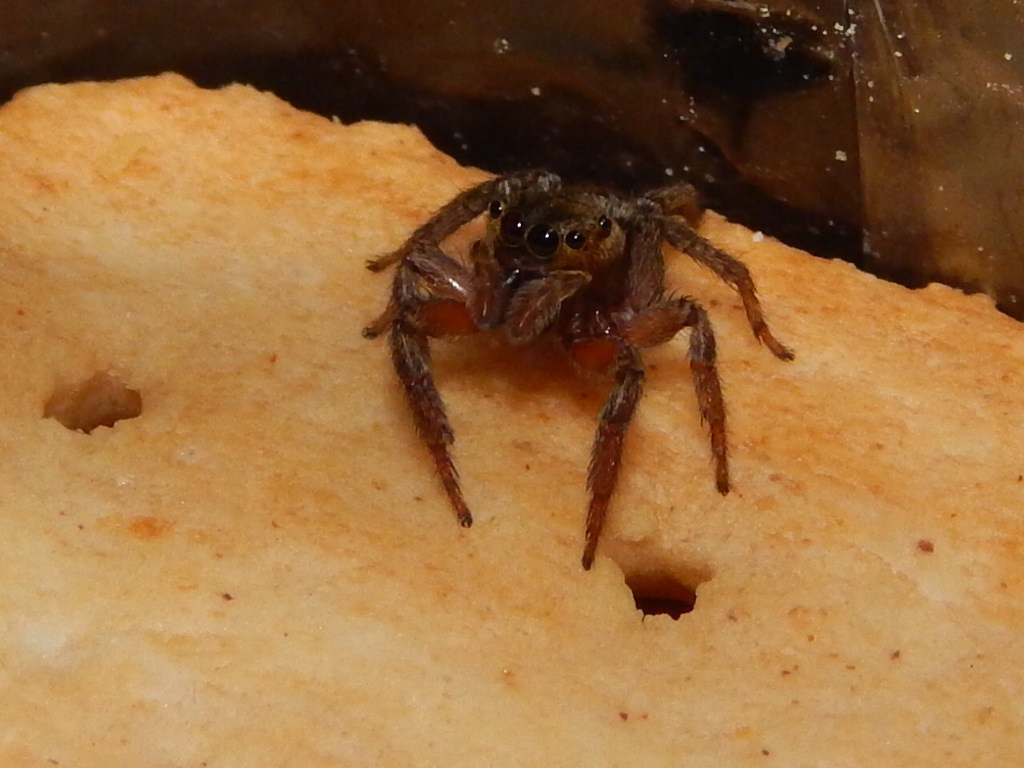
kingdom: Animalia
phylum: Arthropoda
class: Arachnida
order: Araneae
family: Salticidae
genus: Hasarius
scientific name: Hasarius adansoni
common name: Jumping spider
